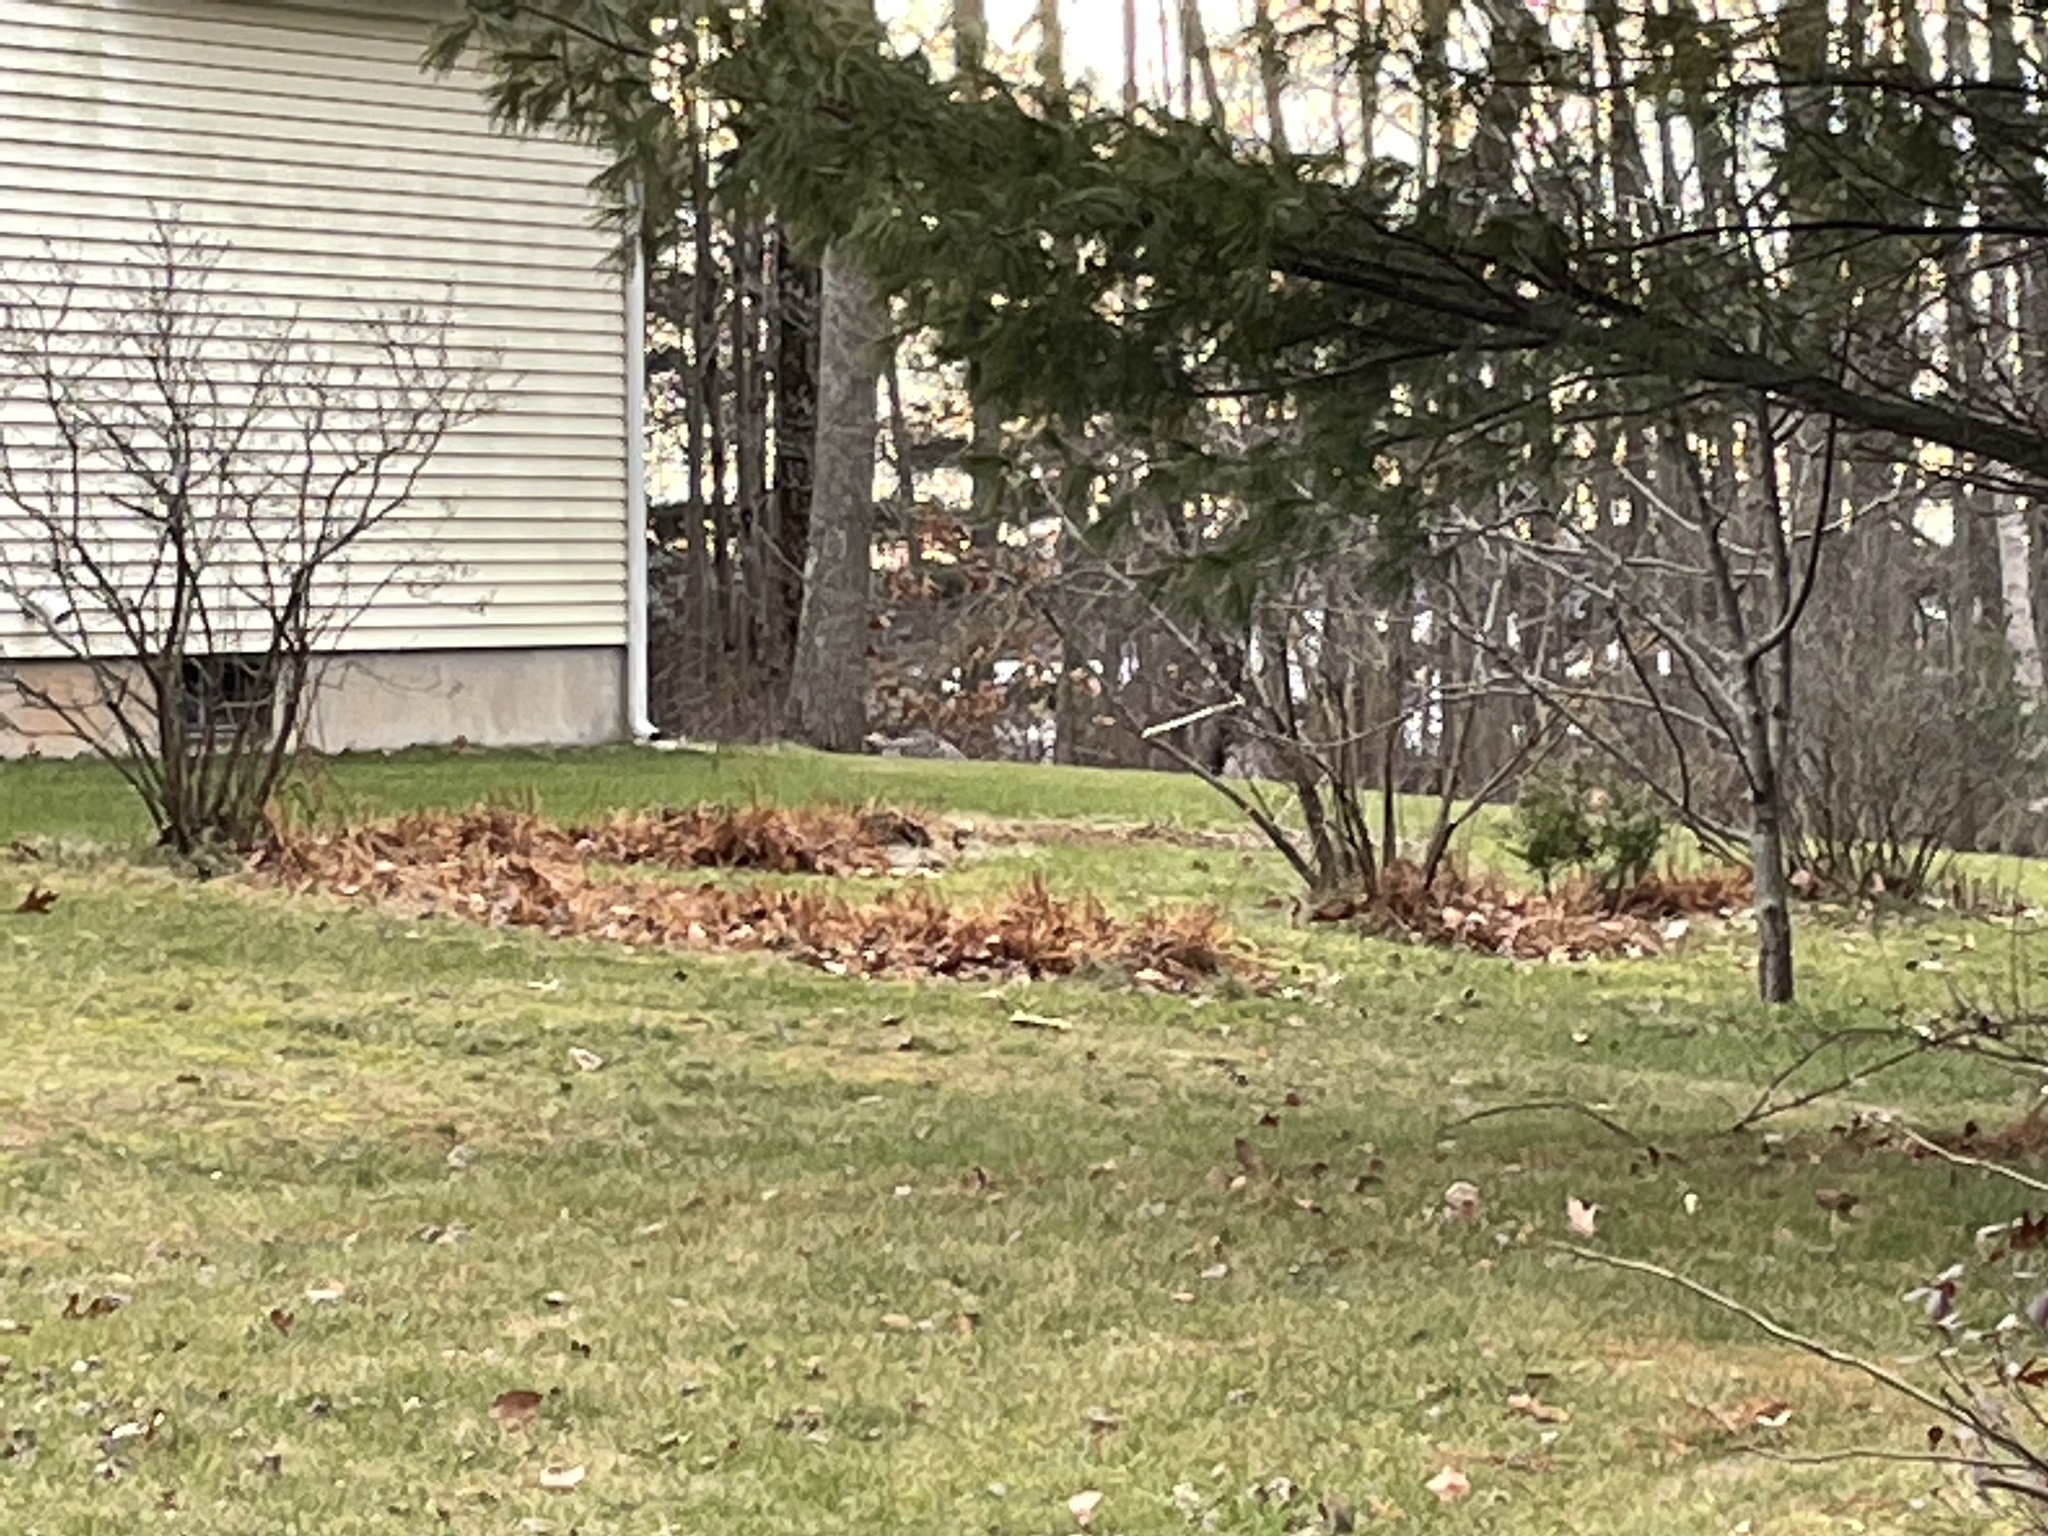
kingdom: Animalia
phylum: Chordata
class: Mammalia
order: Carnivora
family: Canidae
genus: Canis
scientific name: Canis latrans
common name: Coyote
